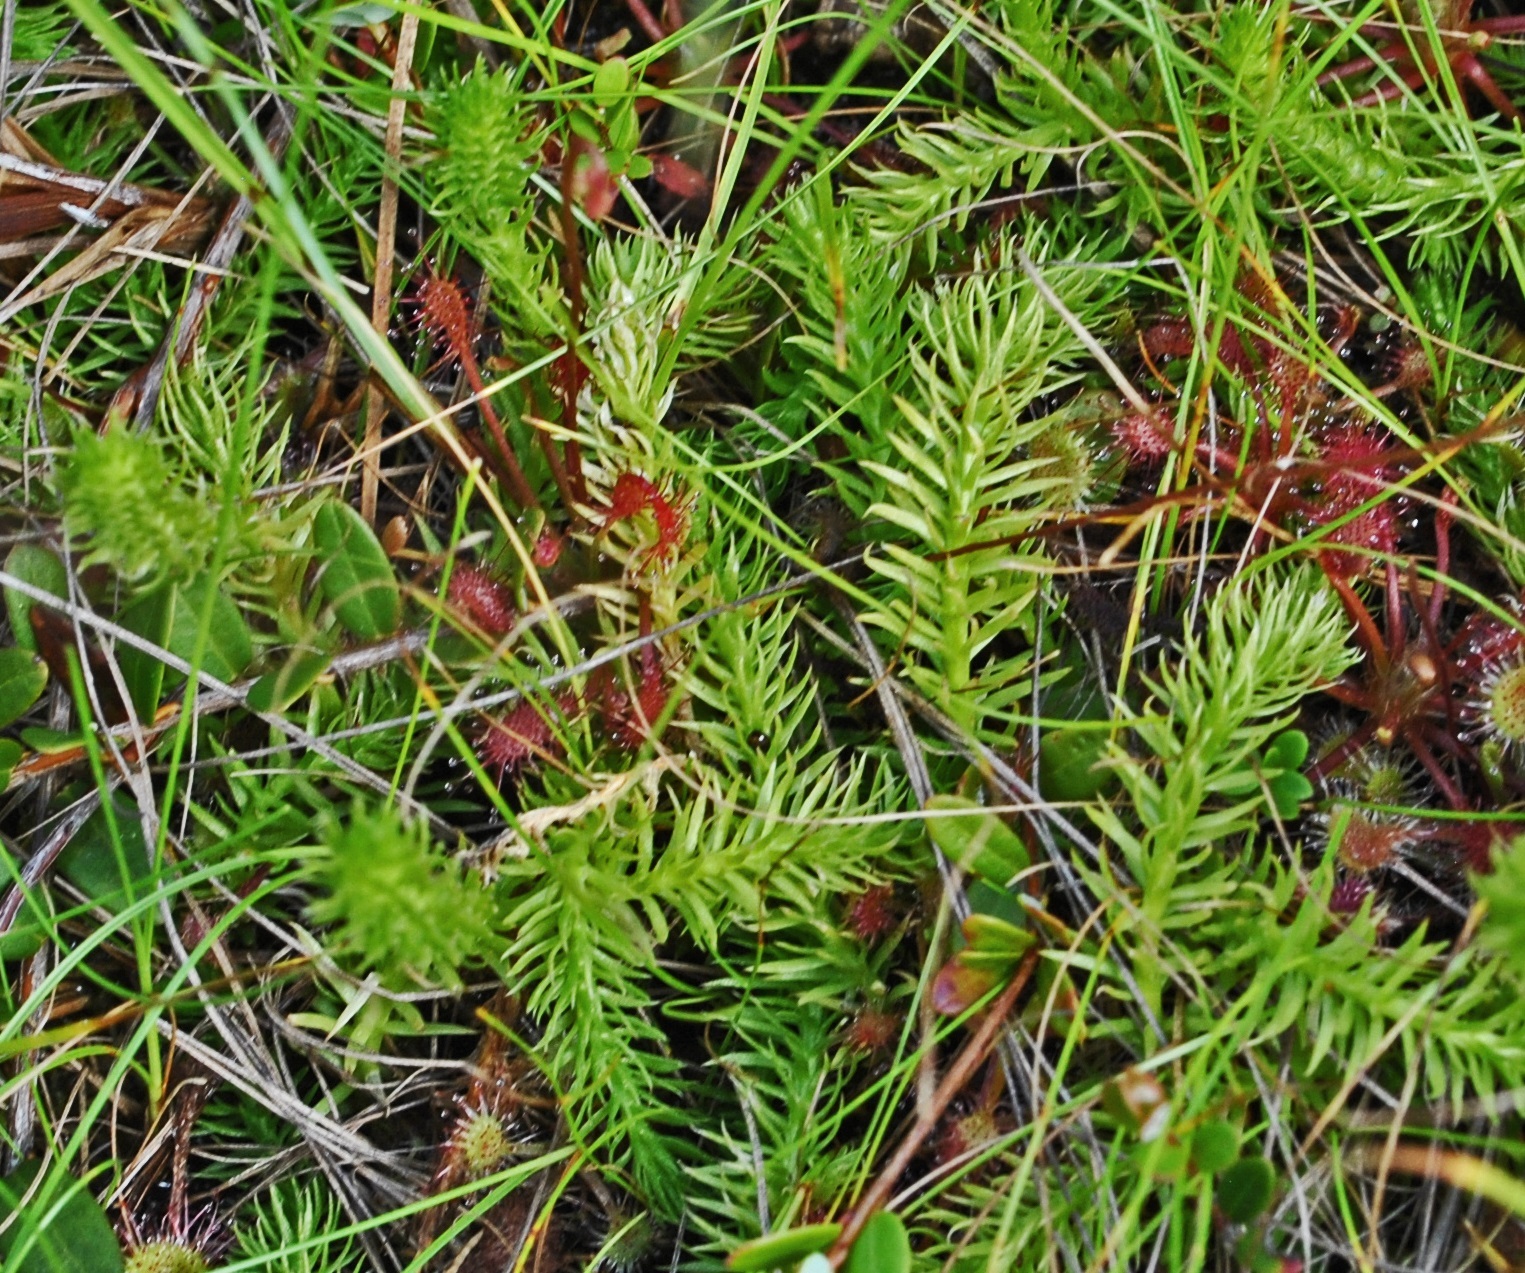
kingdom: Plantae
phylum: Tracheophyta
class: Lycopodiopsida
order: Lycopodiales
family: Lycopodiaceae
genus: Lycopodiella
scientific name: Lycopodiella inundata
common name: Marsh clubmoss
